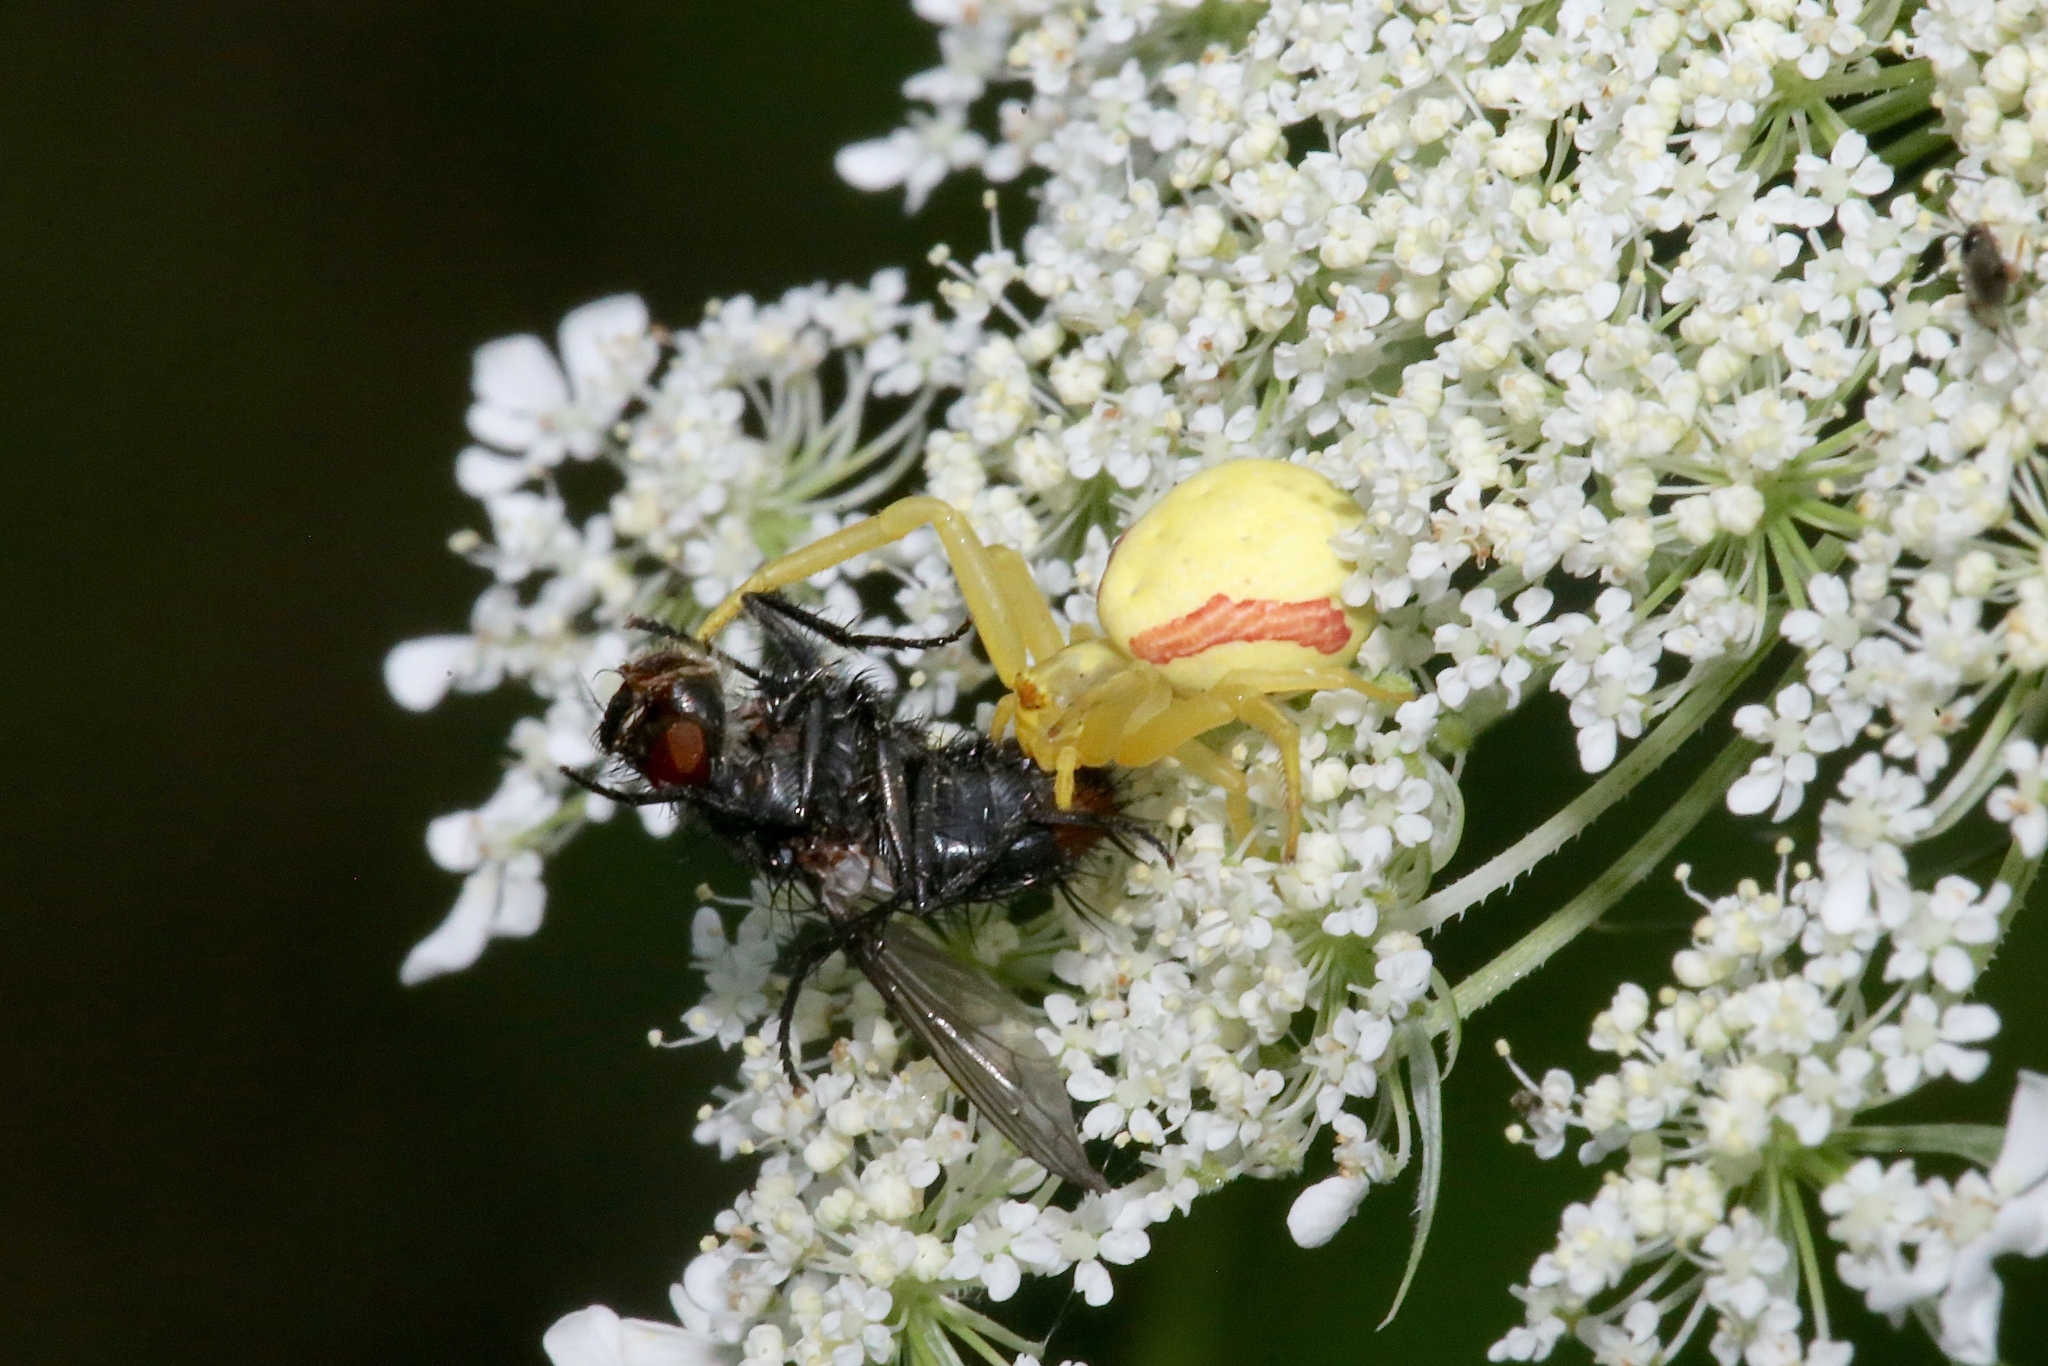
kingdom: Animalia
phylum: Arthropoda
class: Arachnida
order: Araneae
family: Thomisidae
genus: Misumena
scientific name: Misumena vatia
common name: Goldenrod crab spider
